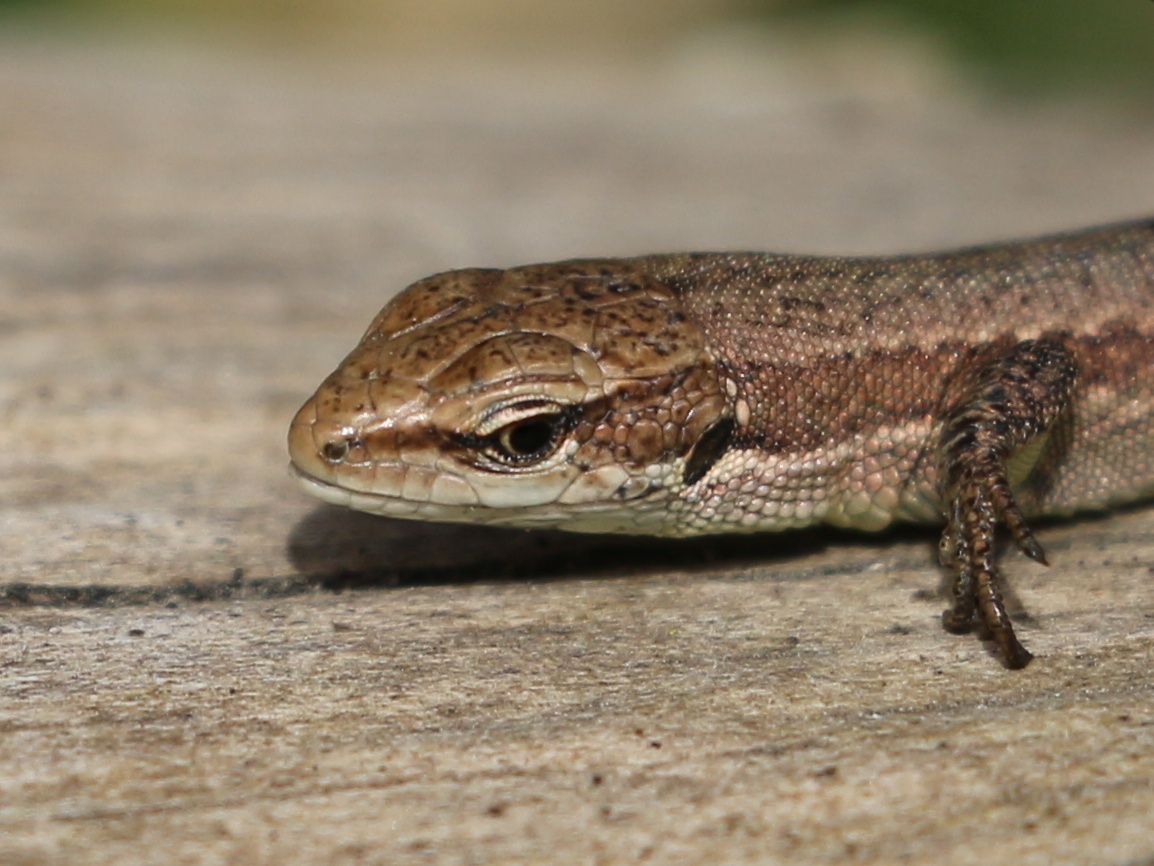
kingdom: Animalia
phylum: Chordata
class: Squamata
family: Lacertidae
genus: Darevskia
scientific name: Darevskia praticola
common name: Meadow lizard
